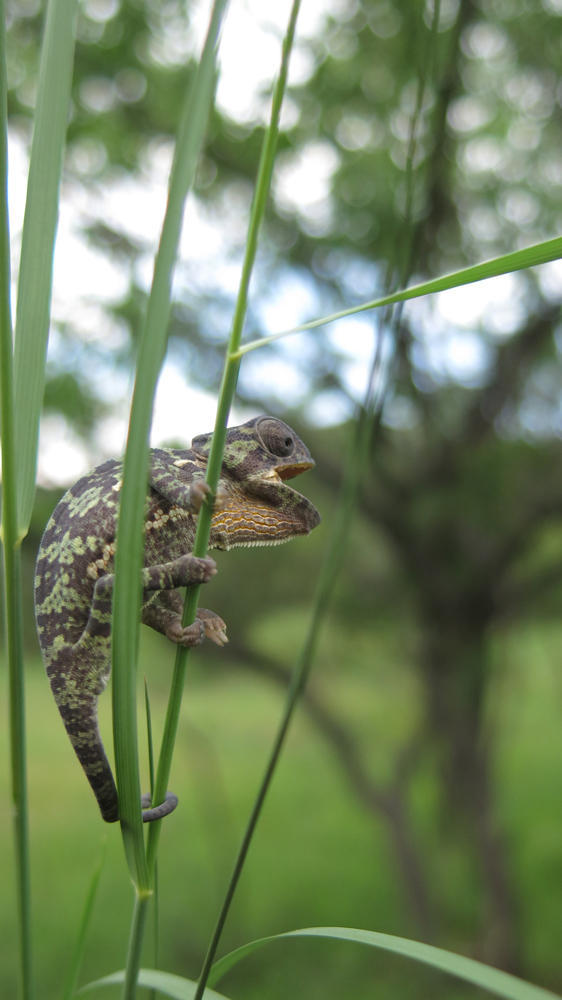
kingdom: Animalia
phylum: Chordata
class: Squamata
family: Chamaeleonidae
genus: Chamaeleo
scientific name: Chamaeleo dilepis
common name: Flapneck chameleon
